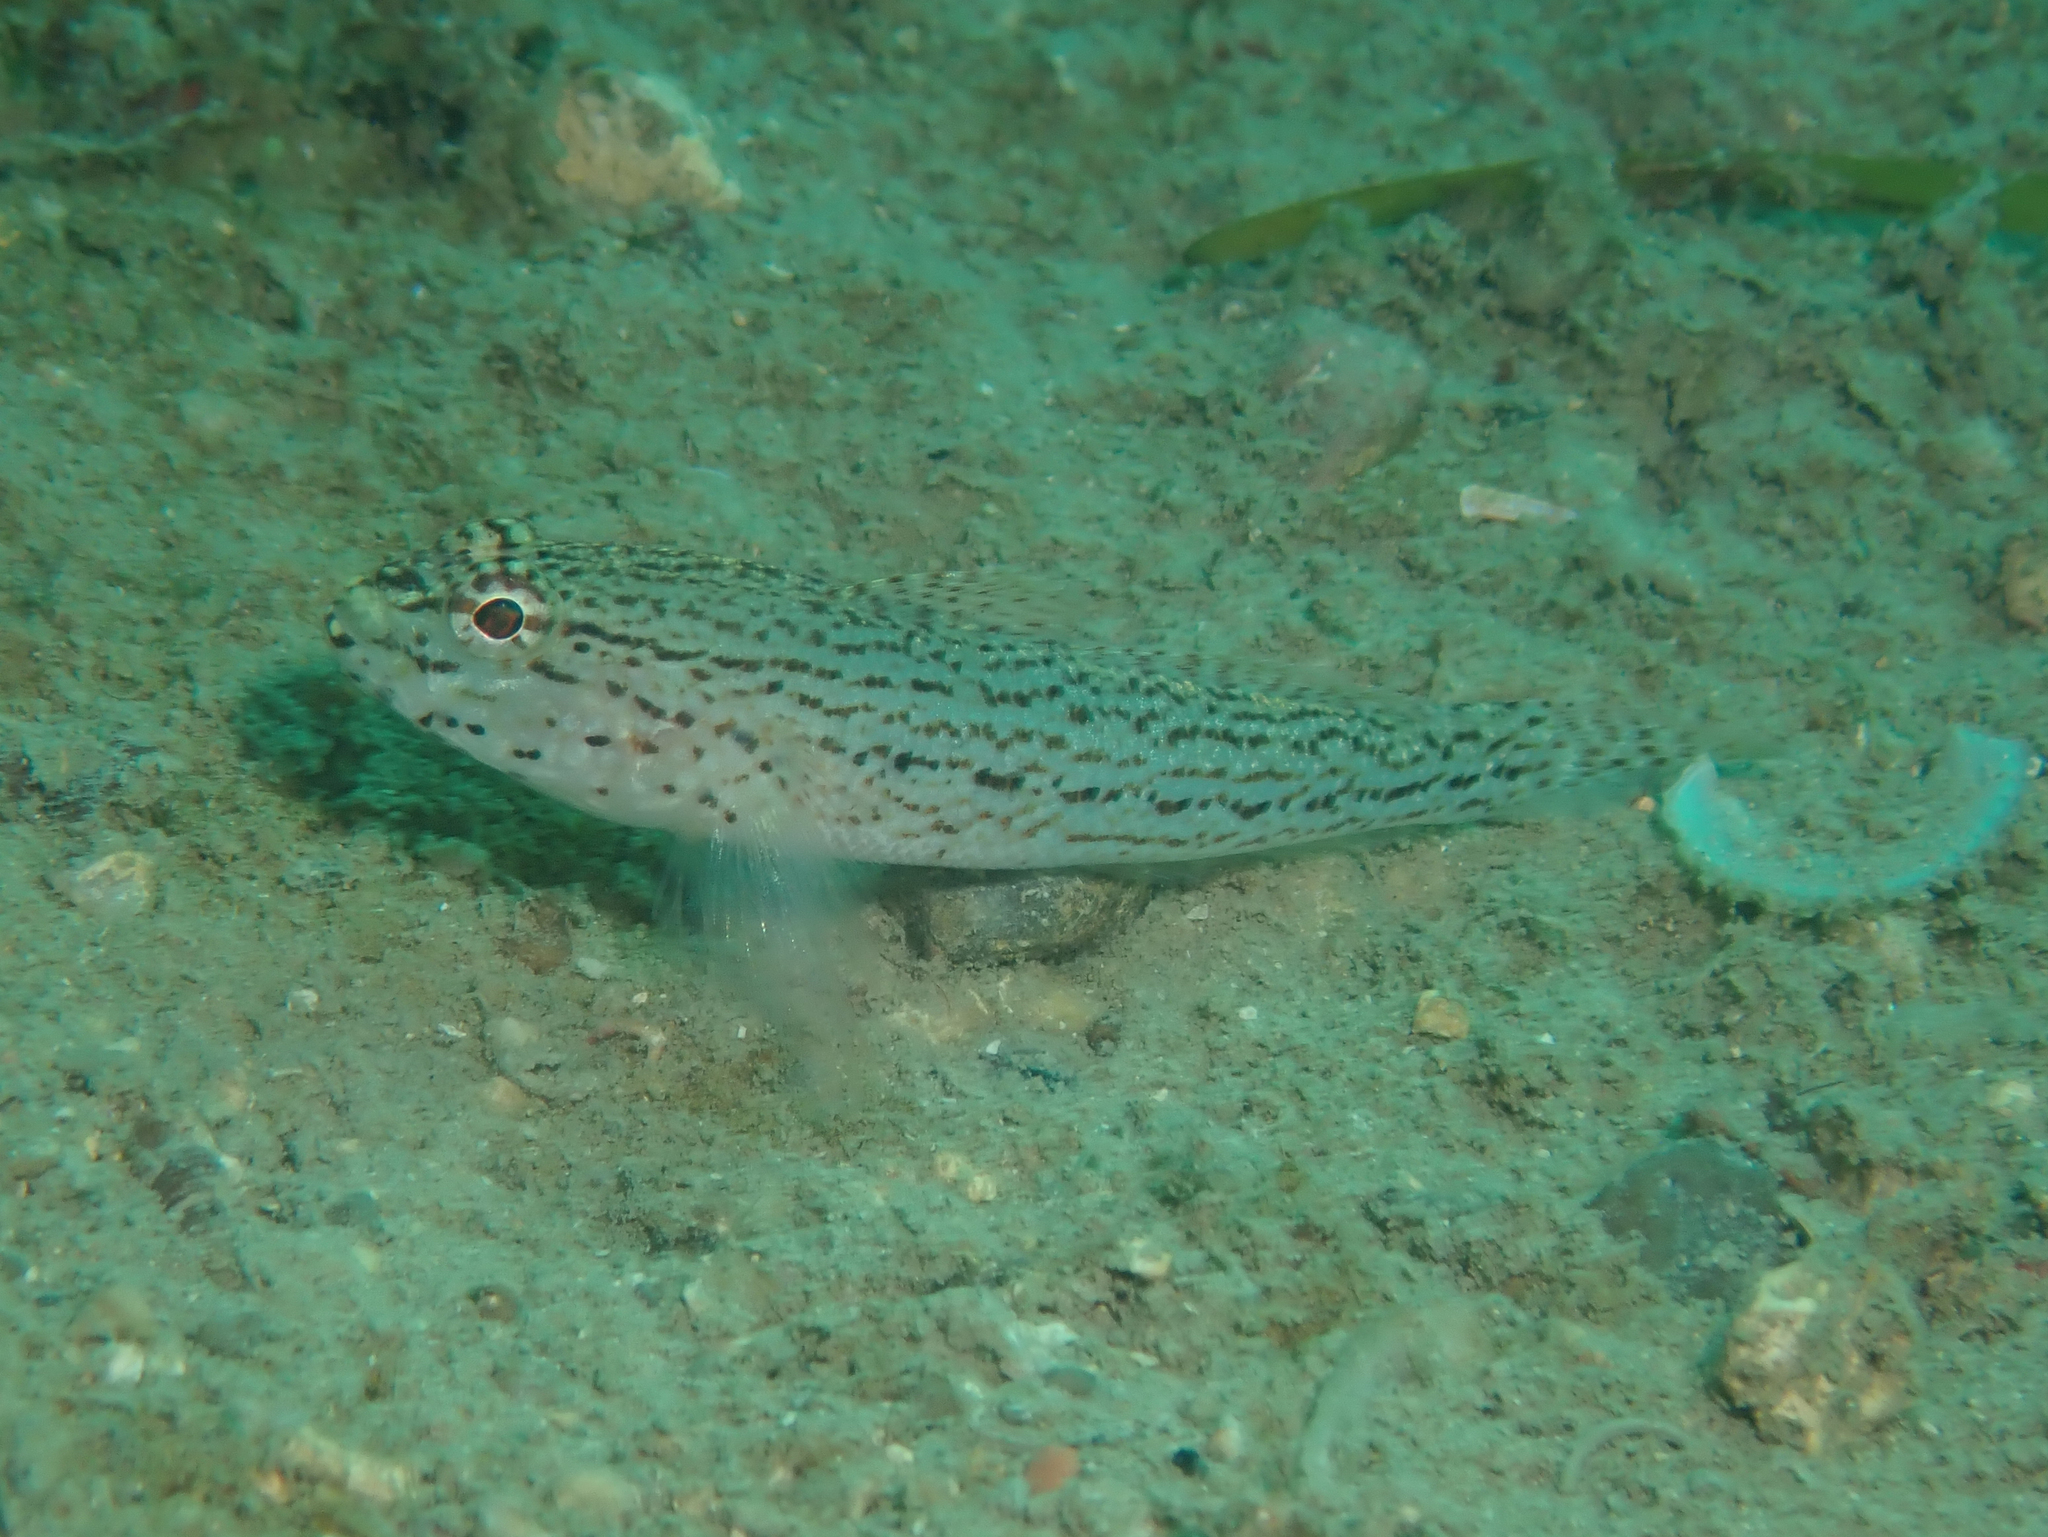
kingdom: Animalia
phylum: Chordata
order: Perciformes
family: Gobiidae
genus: Gobius
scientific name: Gobius fallax
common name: Sarato's goby
